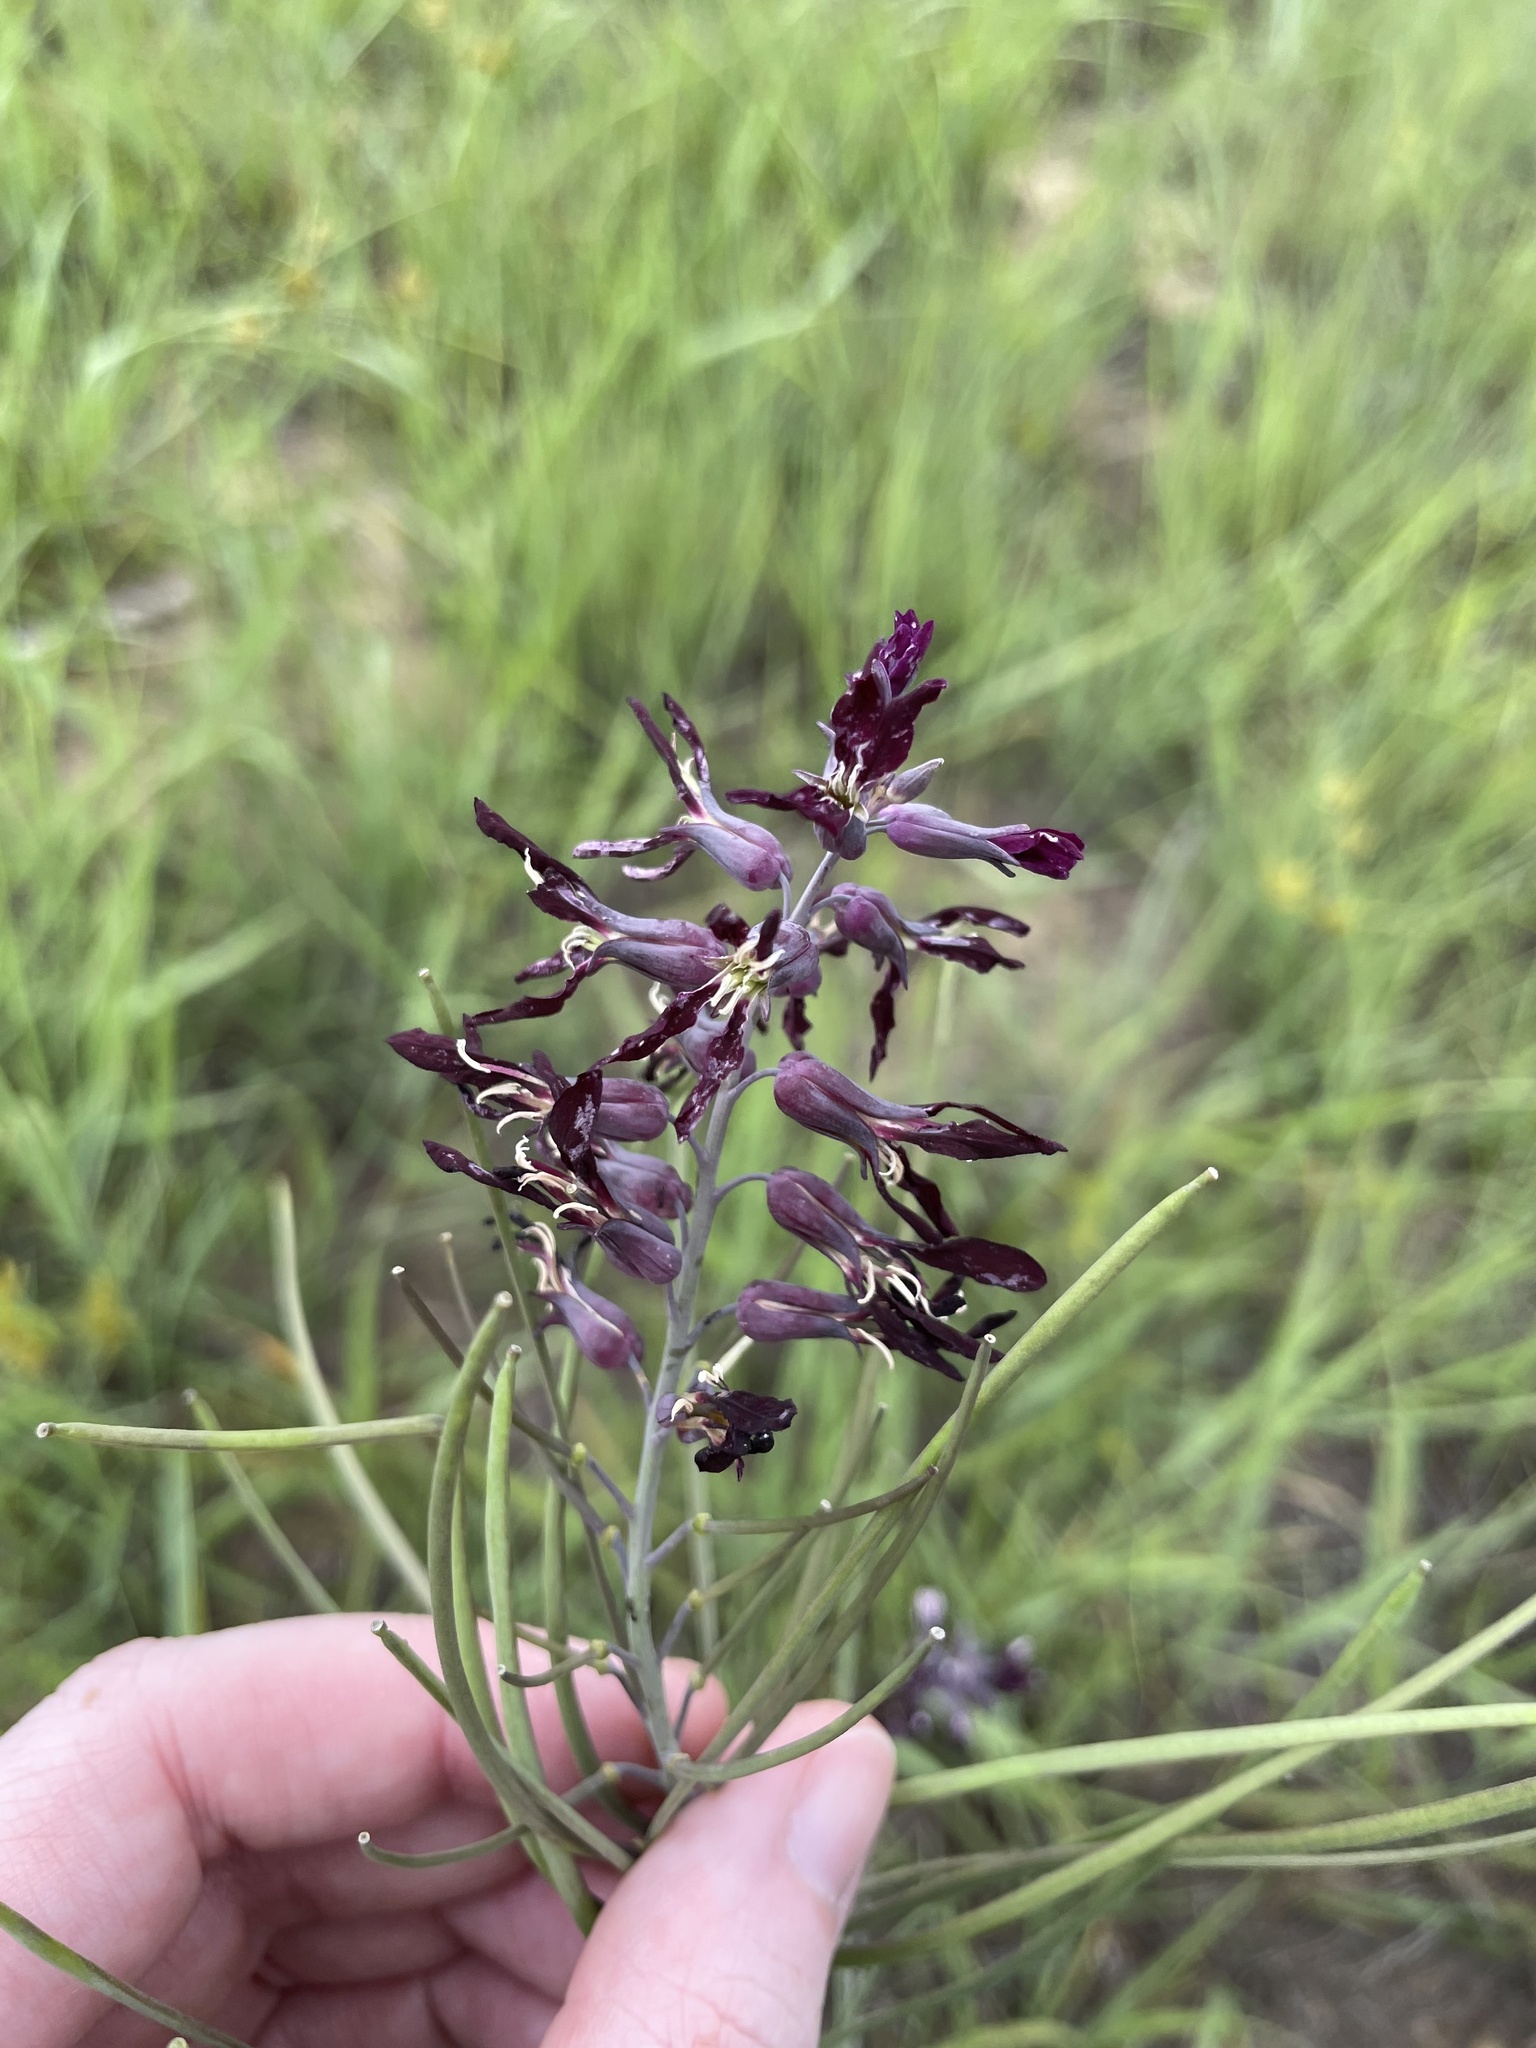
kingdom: Plantae
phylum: Tracheophyta
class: Magnoliopsida
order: Brassicales
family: Brassicaceae
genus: Streptanthus
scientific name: Streptanthus hyacinthoides
